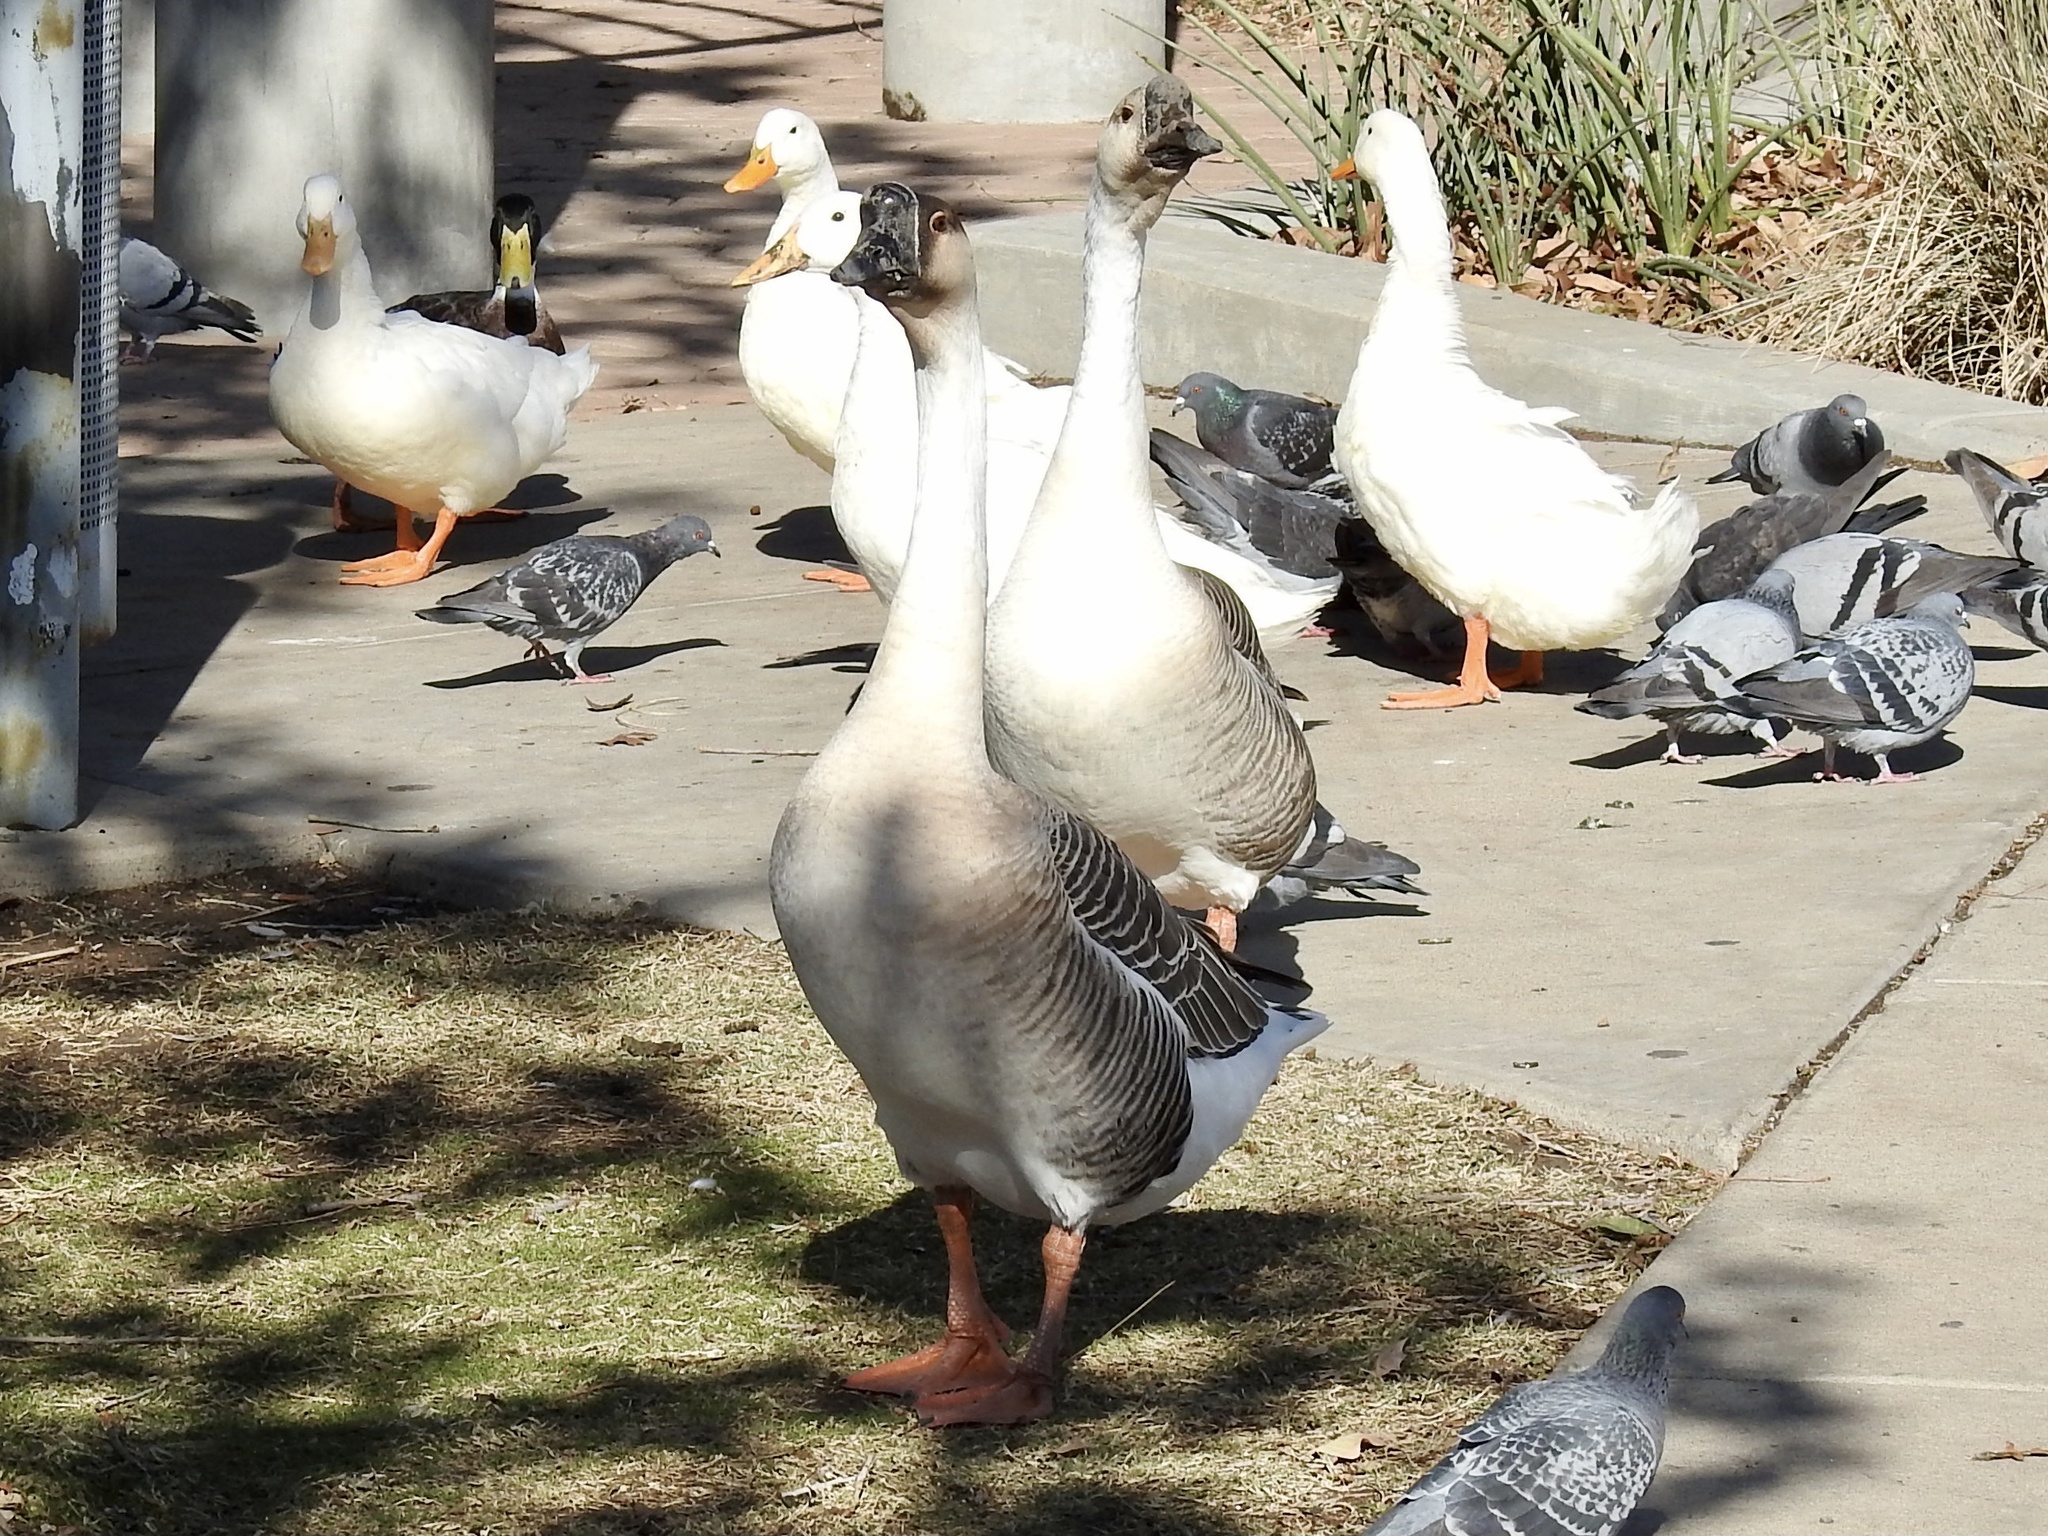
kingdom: Animalia
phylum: Chordata
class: Aves
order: Anseriformes
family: Anatidae
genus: Anser
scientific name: Anser cygnoides
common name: Swan goose
